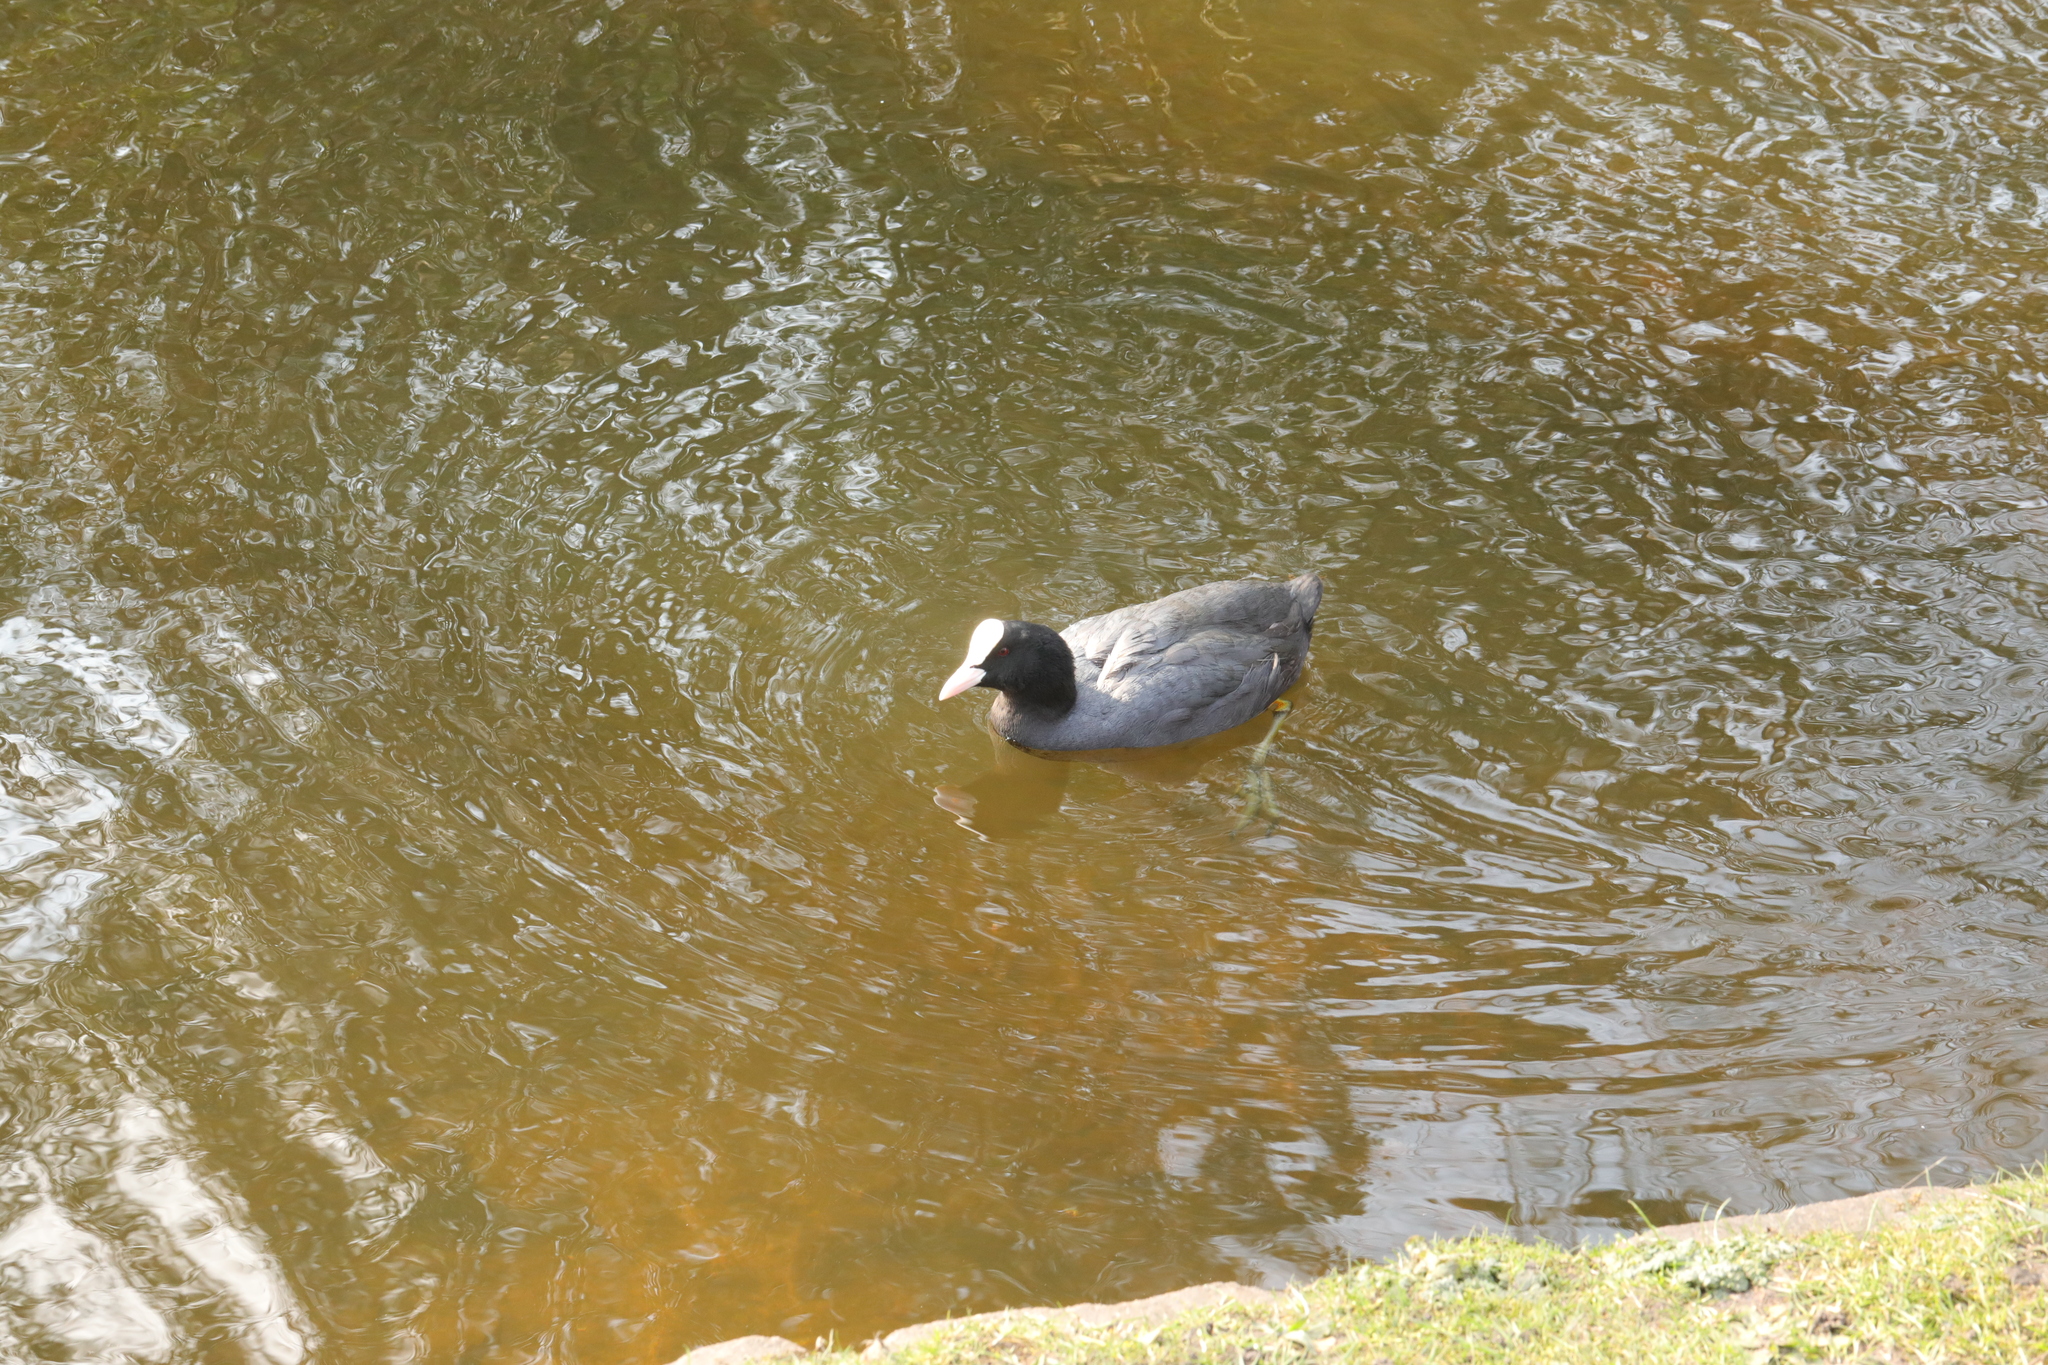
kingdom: Animalia
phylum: Chordata
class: Aves
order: Gruiformes
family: Rallidae
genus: Fulica
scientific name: Fulica atra
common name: Eurasian coot
